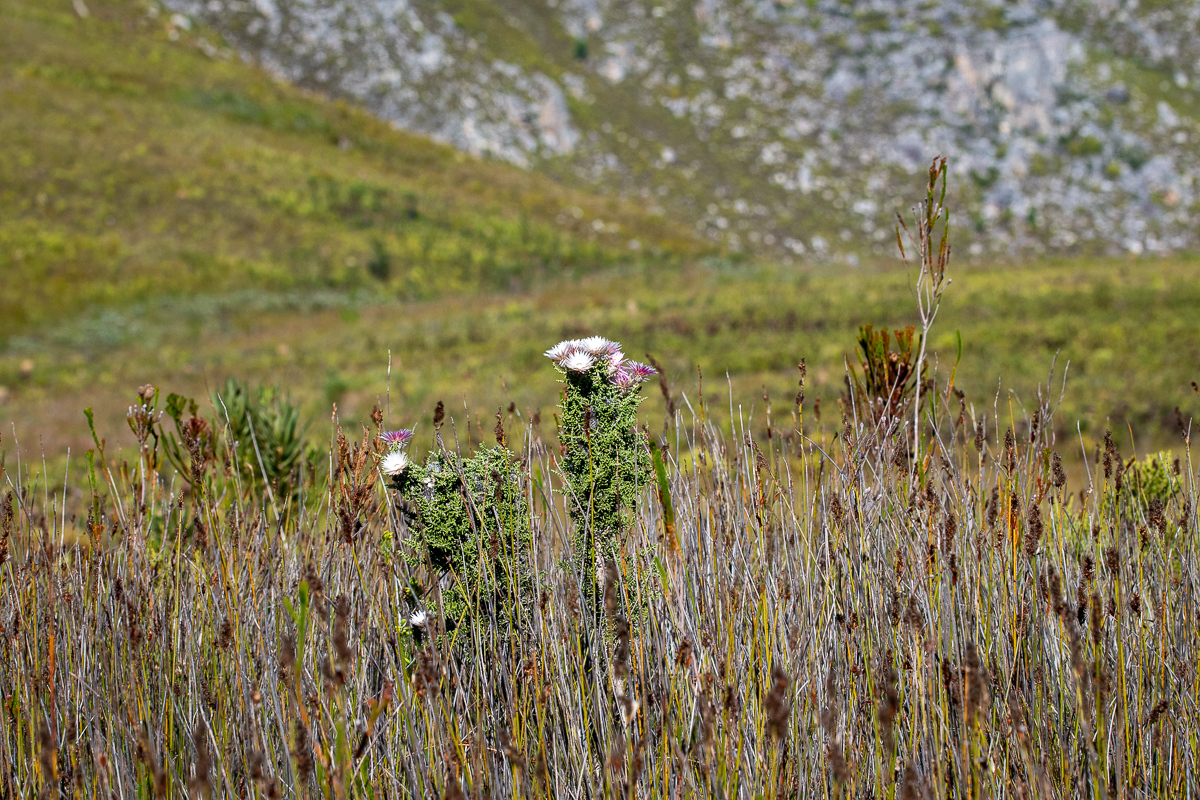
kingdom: Plantae
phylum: Tracheophyta
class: Magnoliopsida
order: Asterales
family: Asteraceae
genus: Phaenocoma
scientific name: Phaenocoma prolifera
